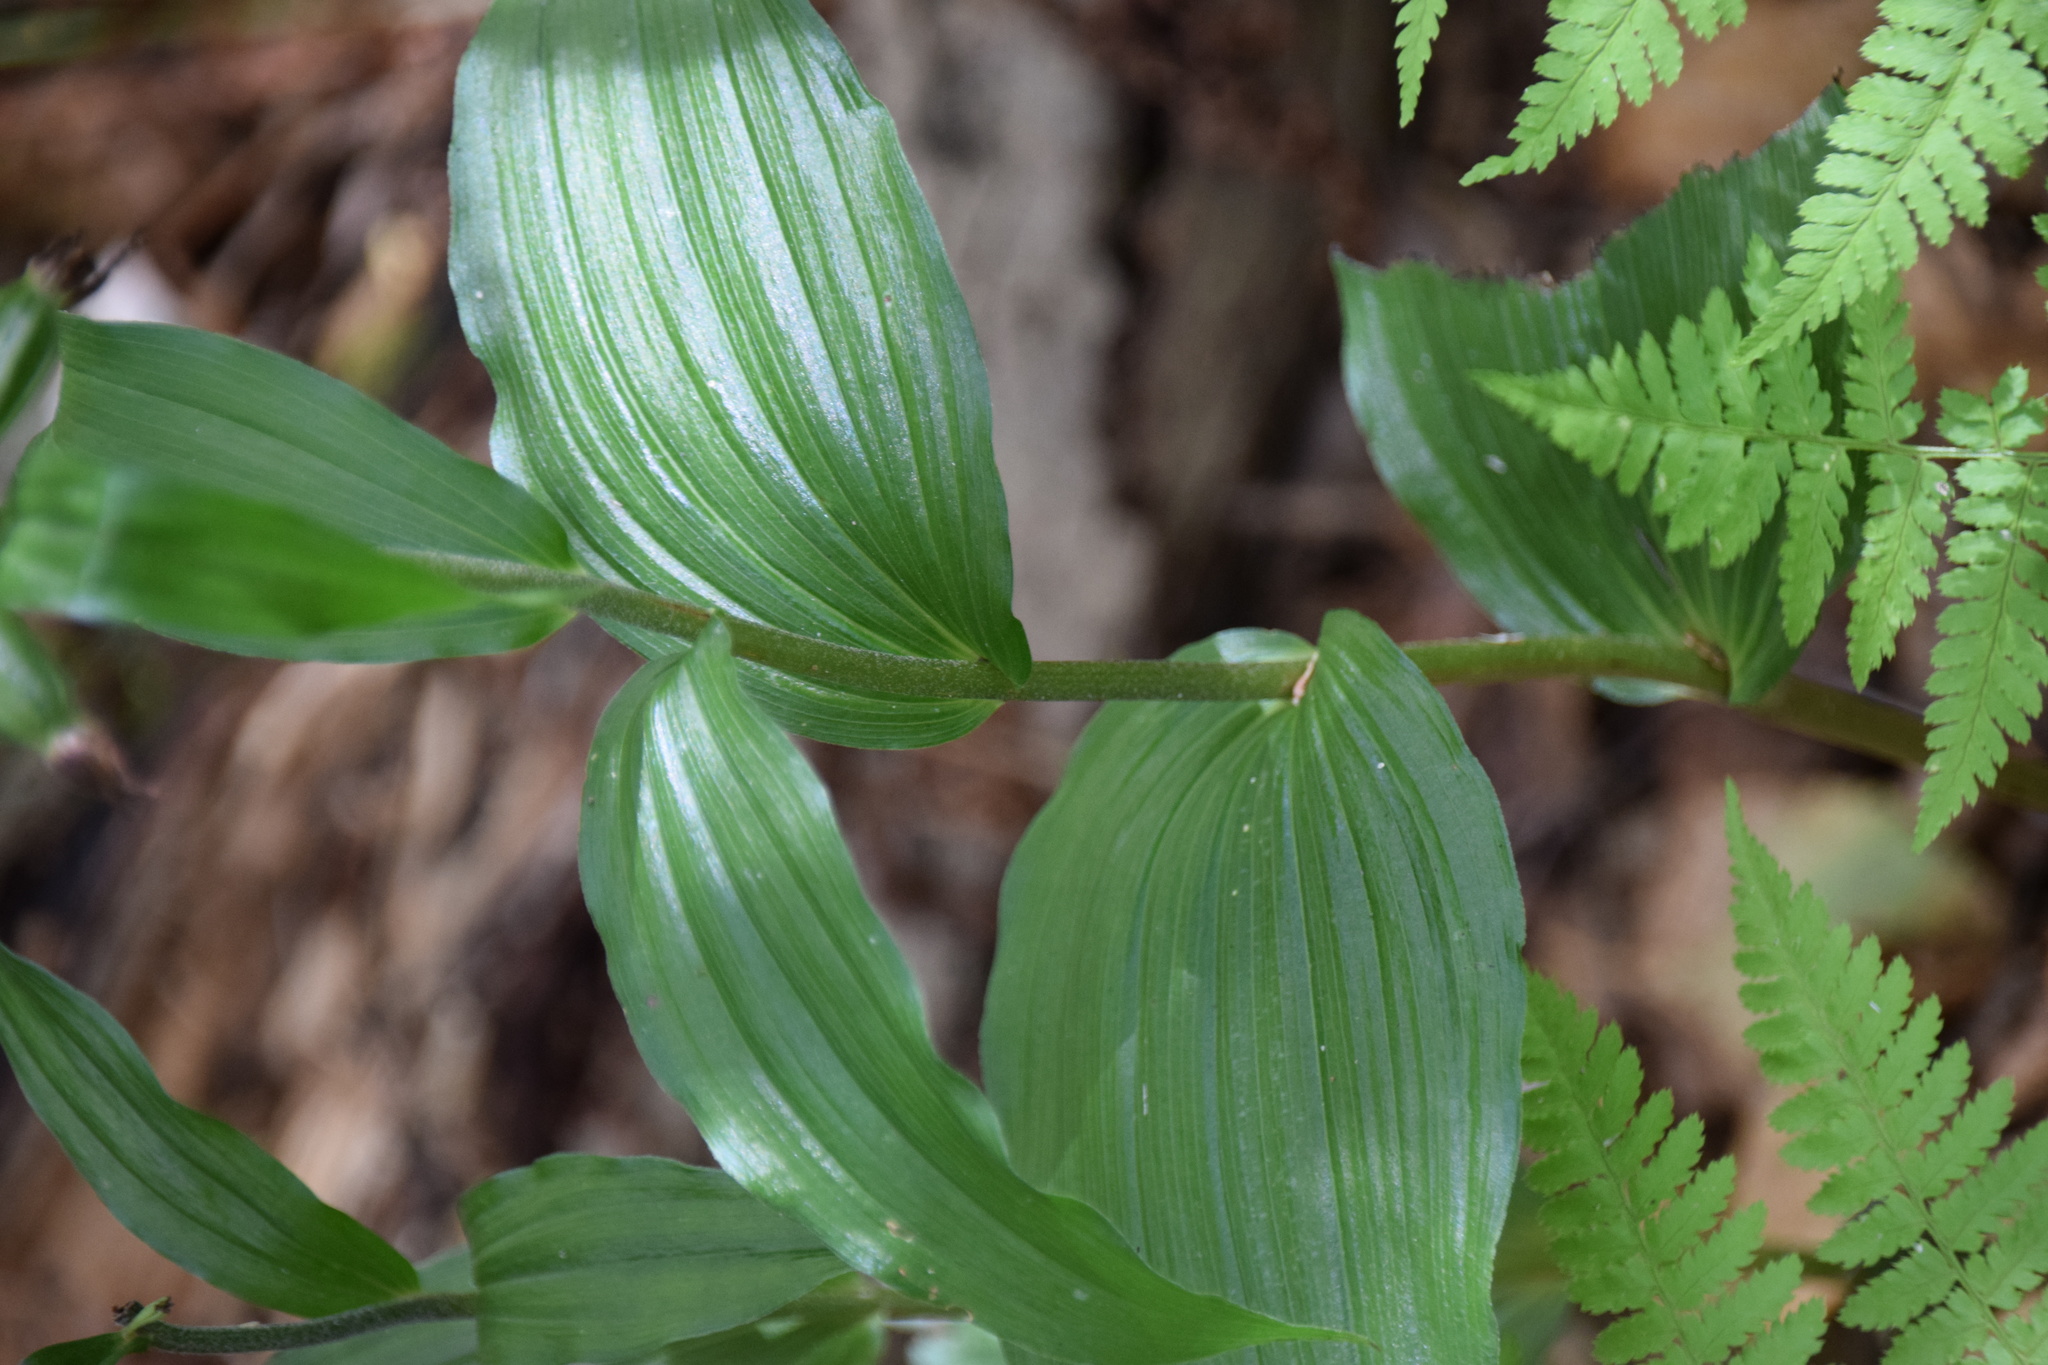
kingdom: Plantae
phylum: Tracheophyta
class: Liliopsida
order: Asparagales
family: Orchidaceae
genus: Epipactis
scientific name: Epipactis helleborine
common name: Broad-leaved helleborine
